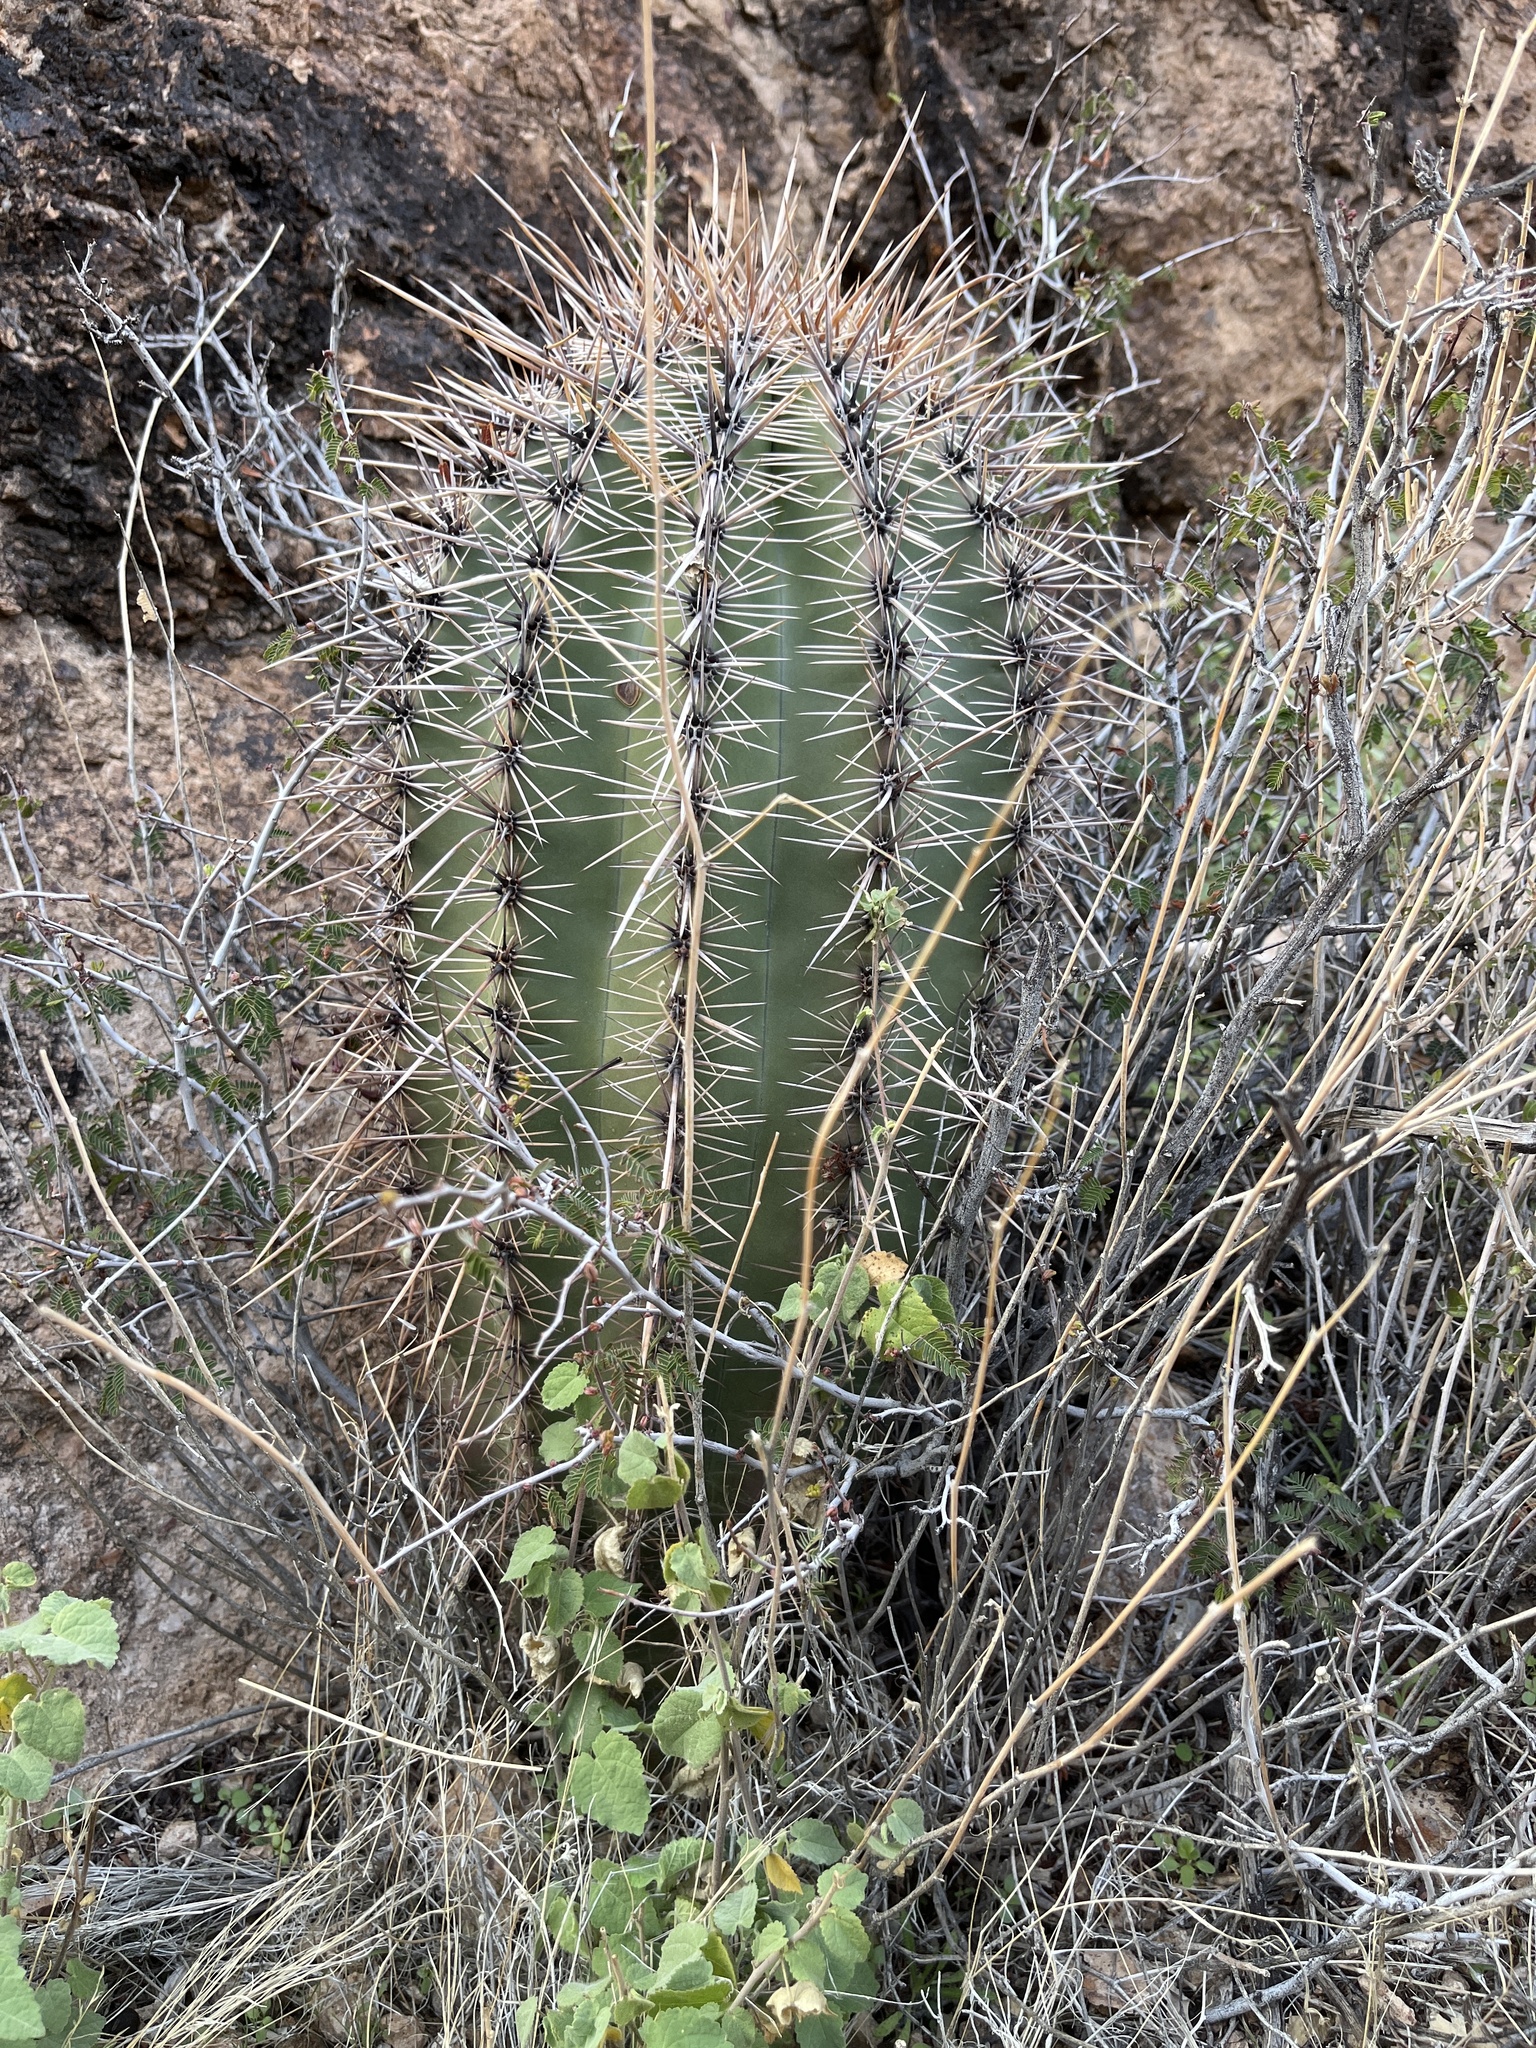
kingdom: Plantae
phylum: Tracheophyta
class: Magnoliopsida
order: Caryophyllales
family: Cactaceae
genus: Carnegiea
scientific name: Carnegiea gigantea
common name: Saguaro
